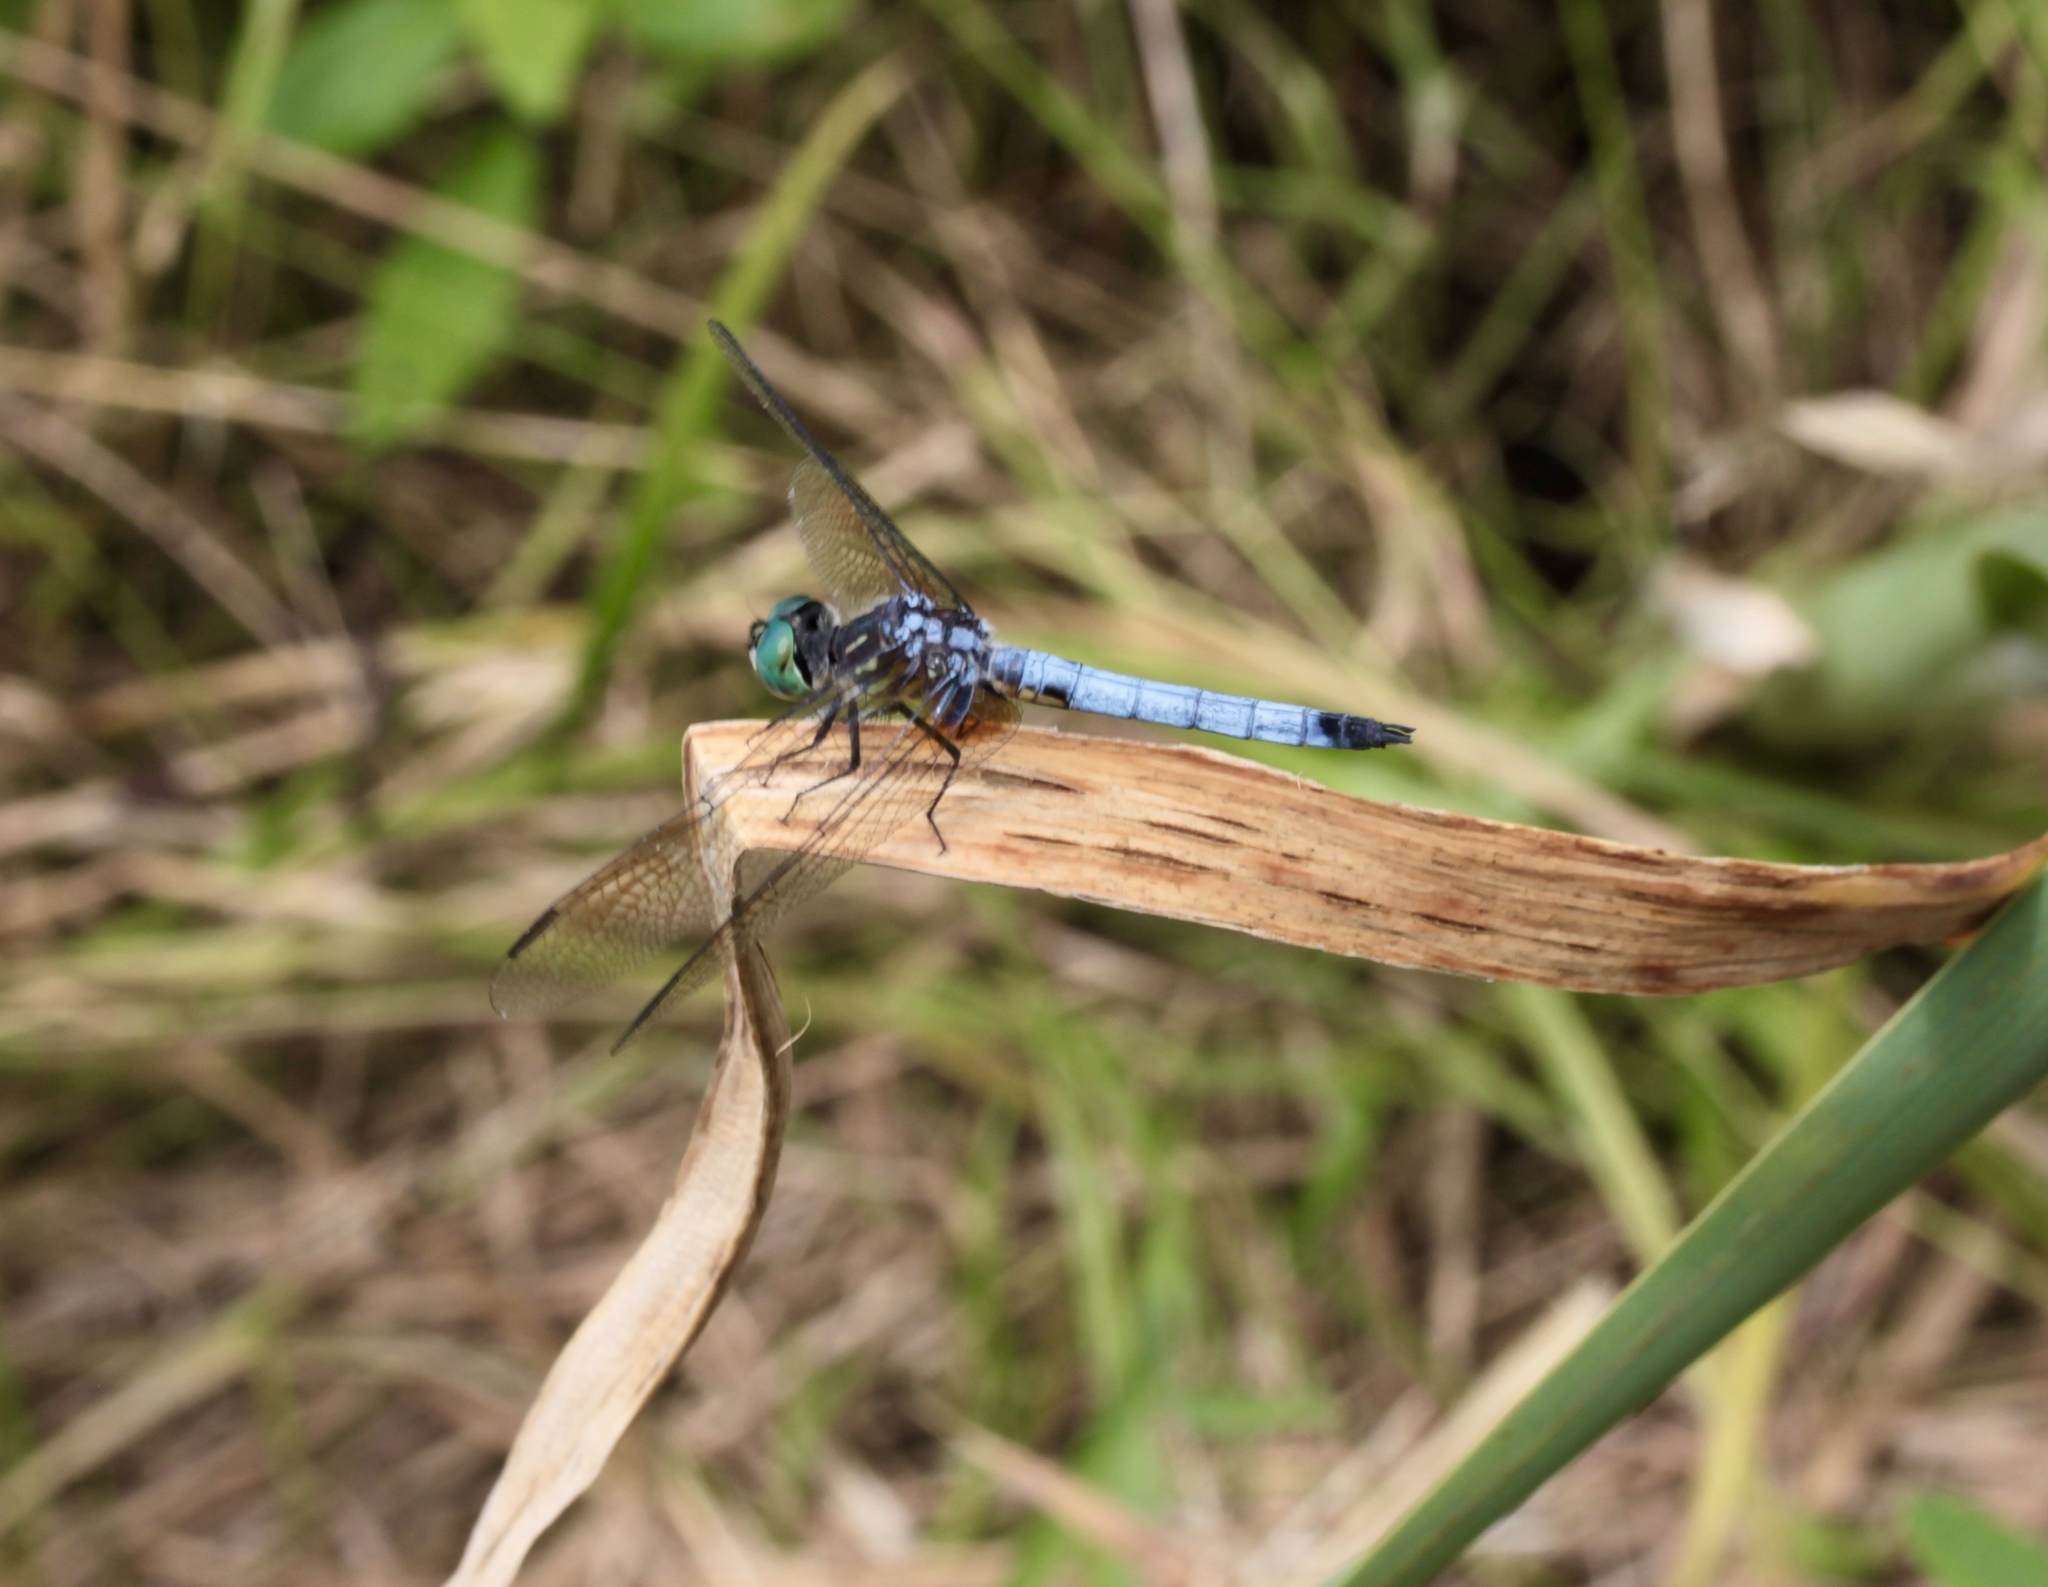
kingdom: Animalia
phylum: Arthropoda
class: Insecta
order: Odonata
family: Libellulidae
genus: Pachydiplax
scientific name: Pachydiplax longipennis
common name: Blue dasher
